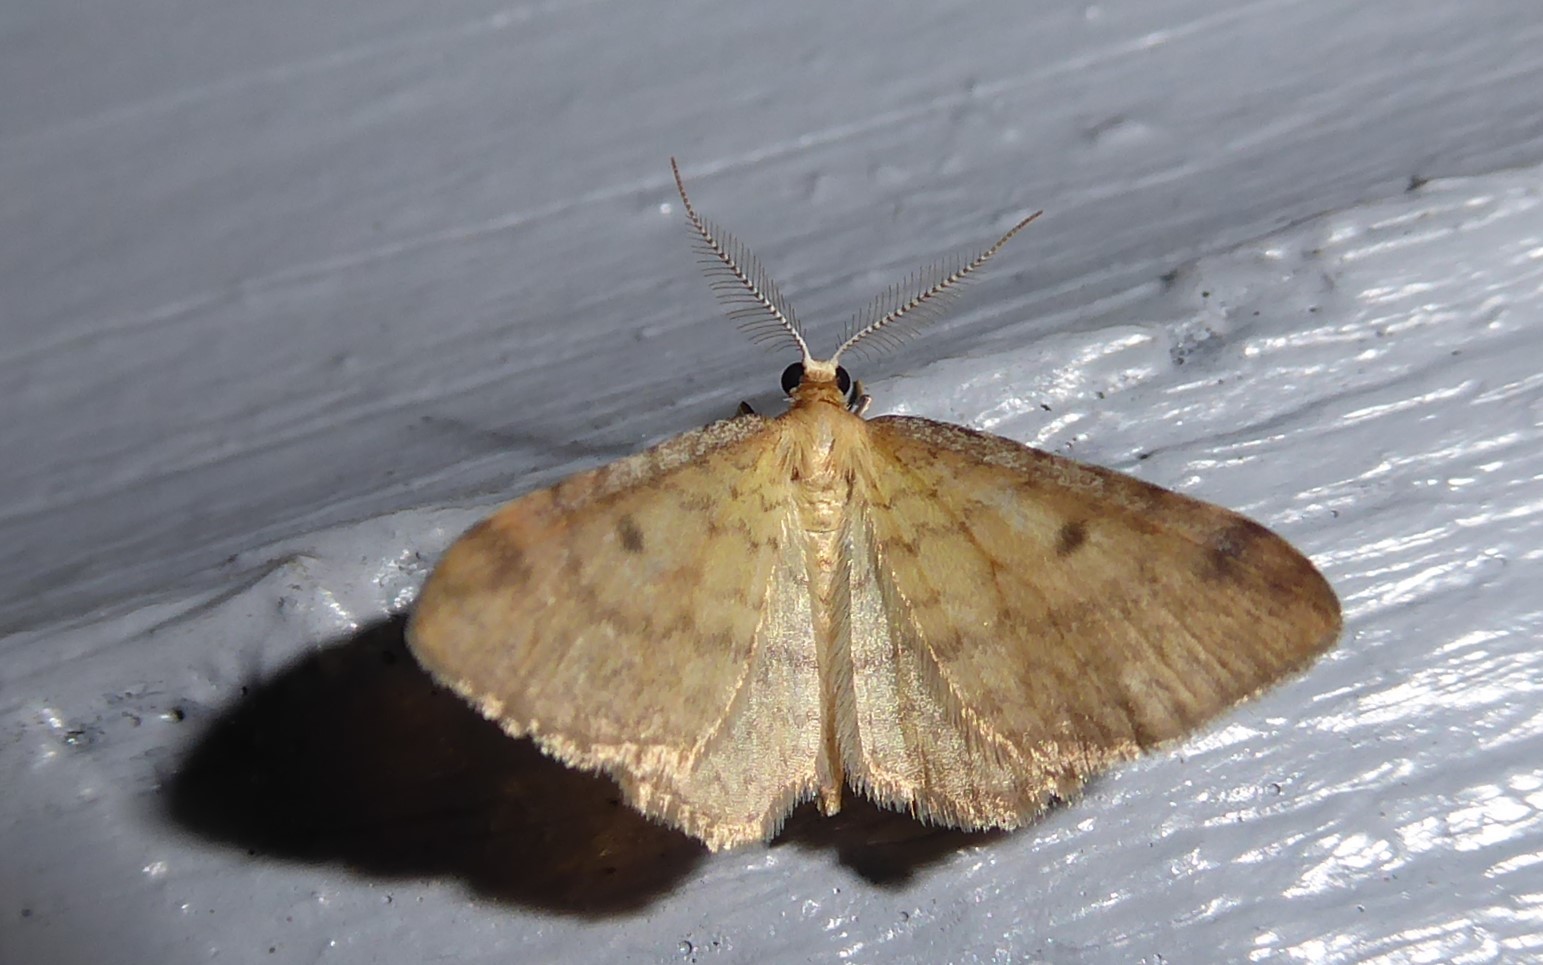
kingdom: Animalia
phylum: Arthropoda
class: Insecta
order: Lepidoptera
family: Geometridae
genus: Epiphryne
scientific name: Epiphryne undosata
